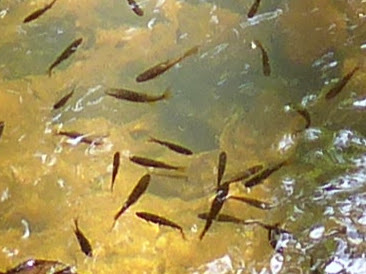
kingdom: Animalia
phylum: Chordata
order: Cypriniformes
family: Cyprinidae
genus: Rasbora
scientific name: Rasbora dandia
